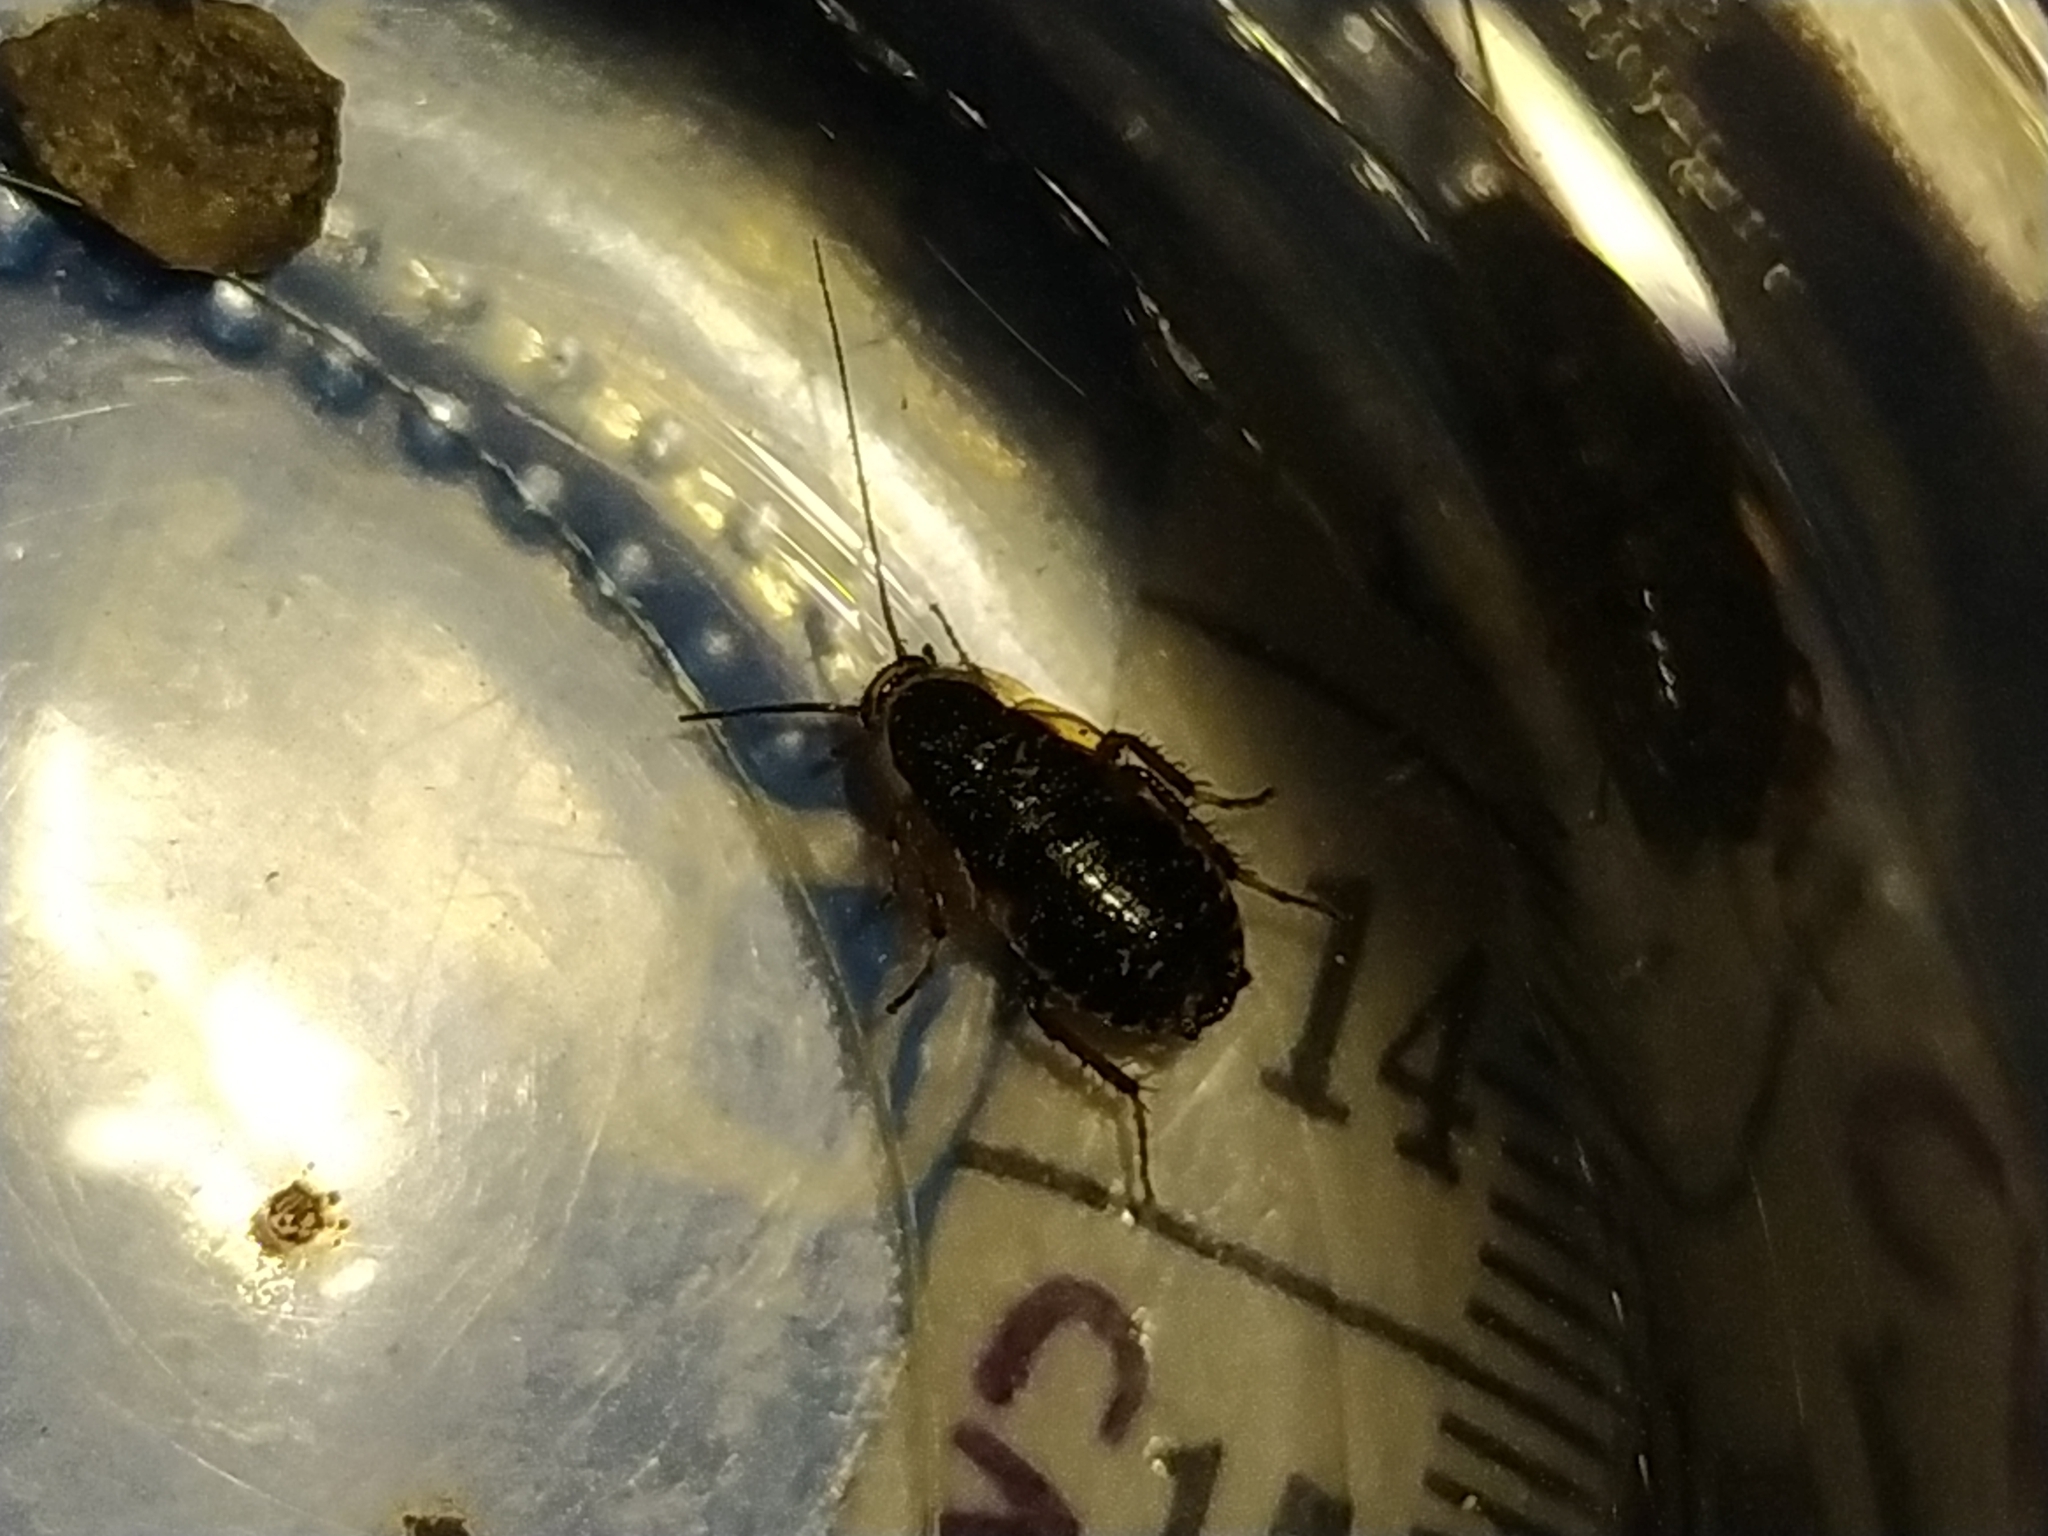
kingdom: Animalia
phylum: Arthropoda
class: Insecta
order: Blattodea
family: Ectobiidae
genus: Ectobius
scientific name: Ectobius sylvestris
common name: Forest cockroach
